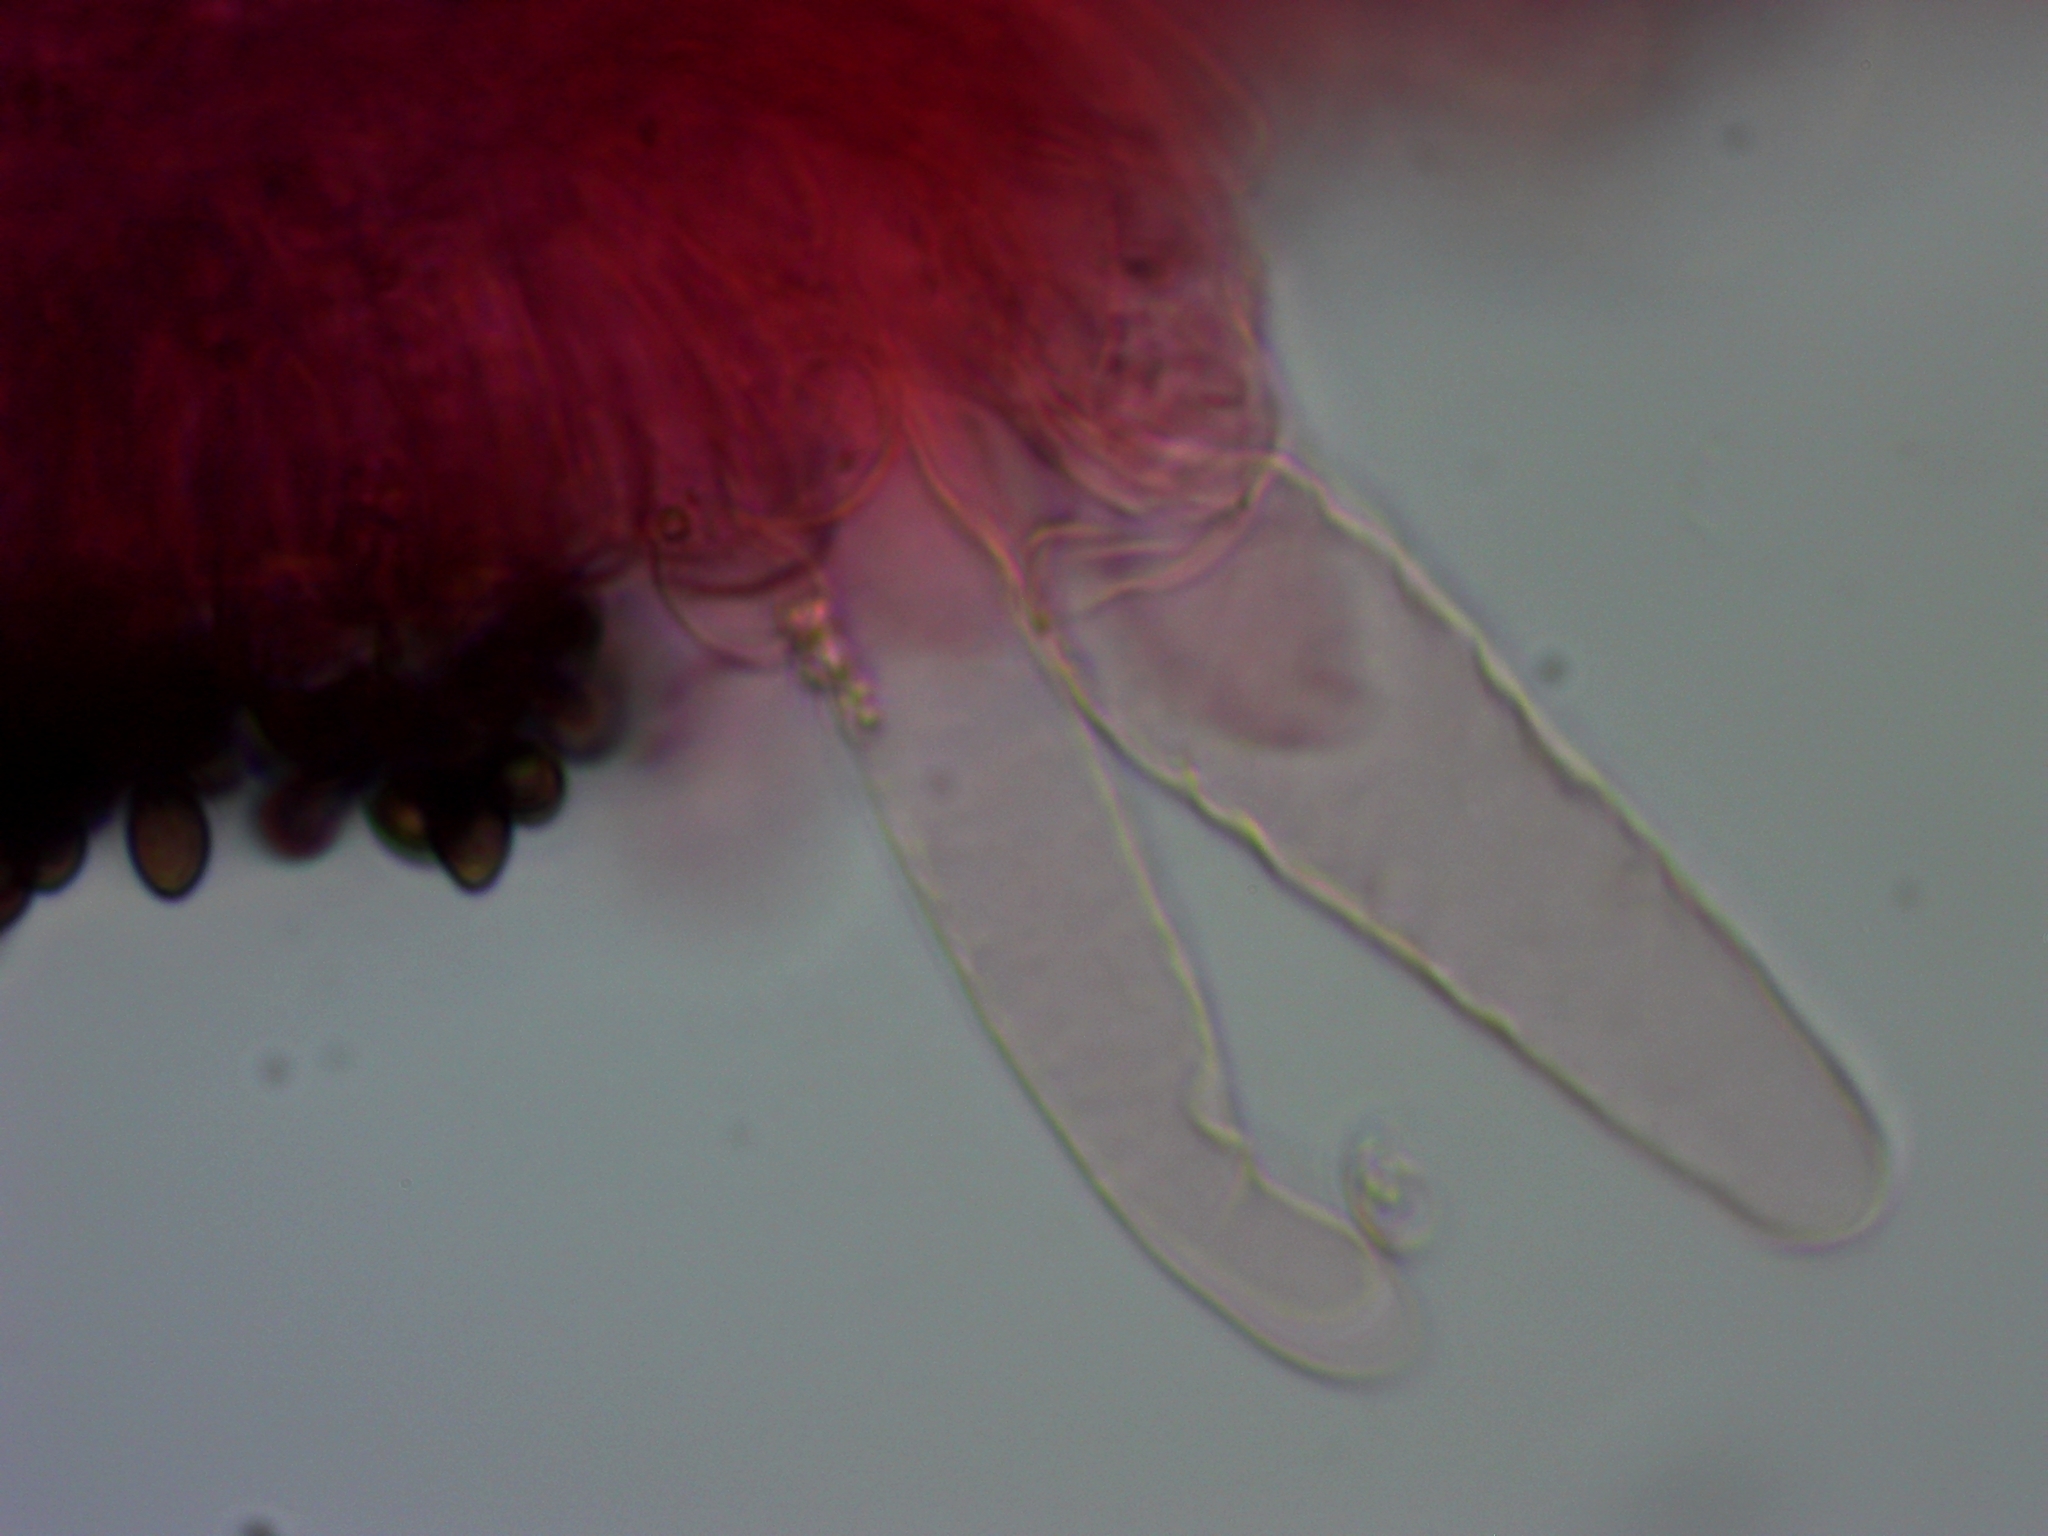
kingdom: Fungi
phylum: Basidiomycota
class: Agaricomycetes
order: Agaricales
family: Psathyrellaceae
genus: Coprinopsis
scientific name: Coprinopsis romagnesiana
